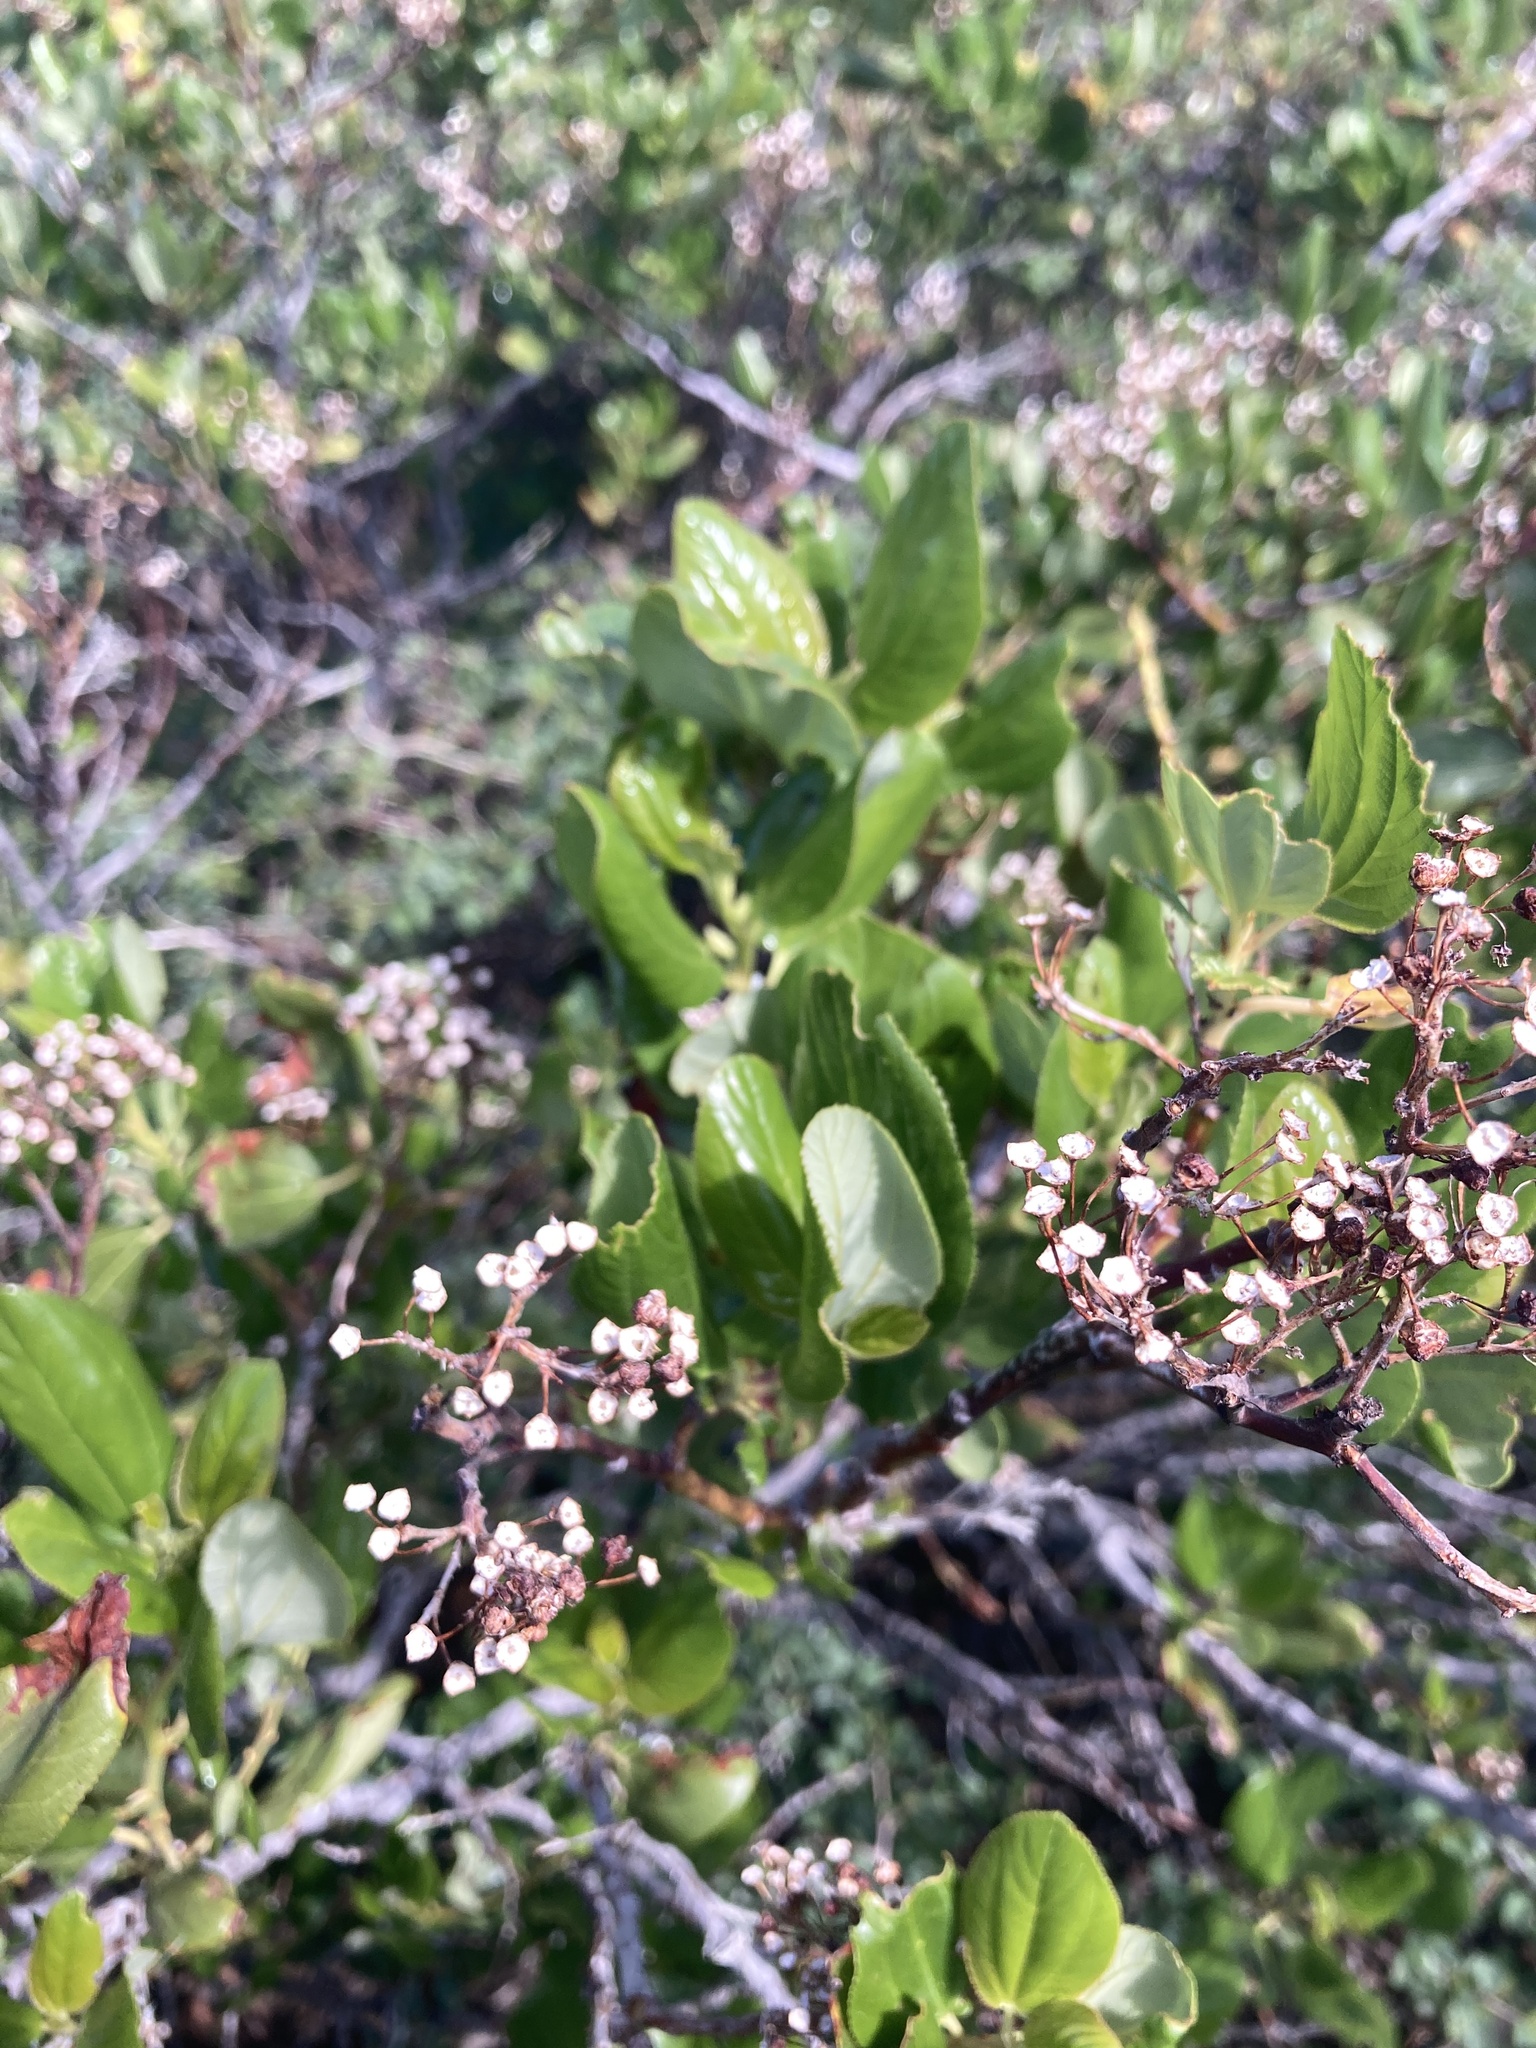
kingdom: Plantae
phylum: Tracheophyta
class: Magnoliopsida
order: Rosales
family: Rhamnaceae
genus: Ceanothus
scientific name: Ceanothus velutinus
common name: Snowbrush
